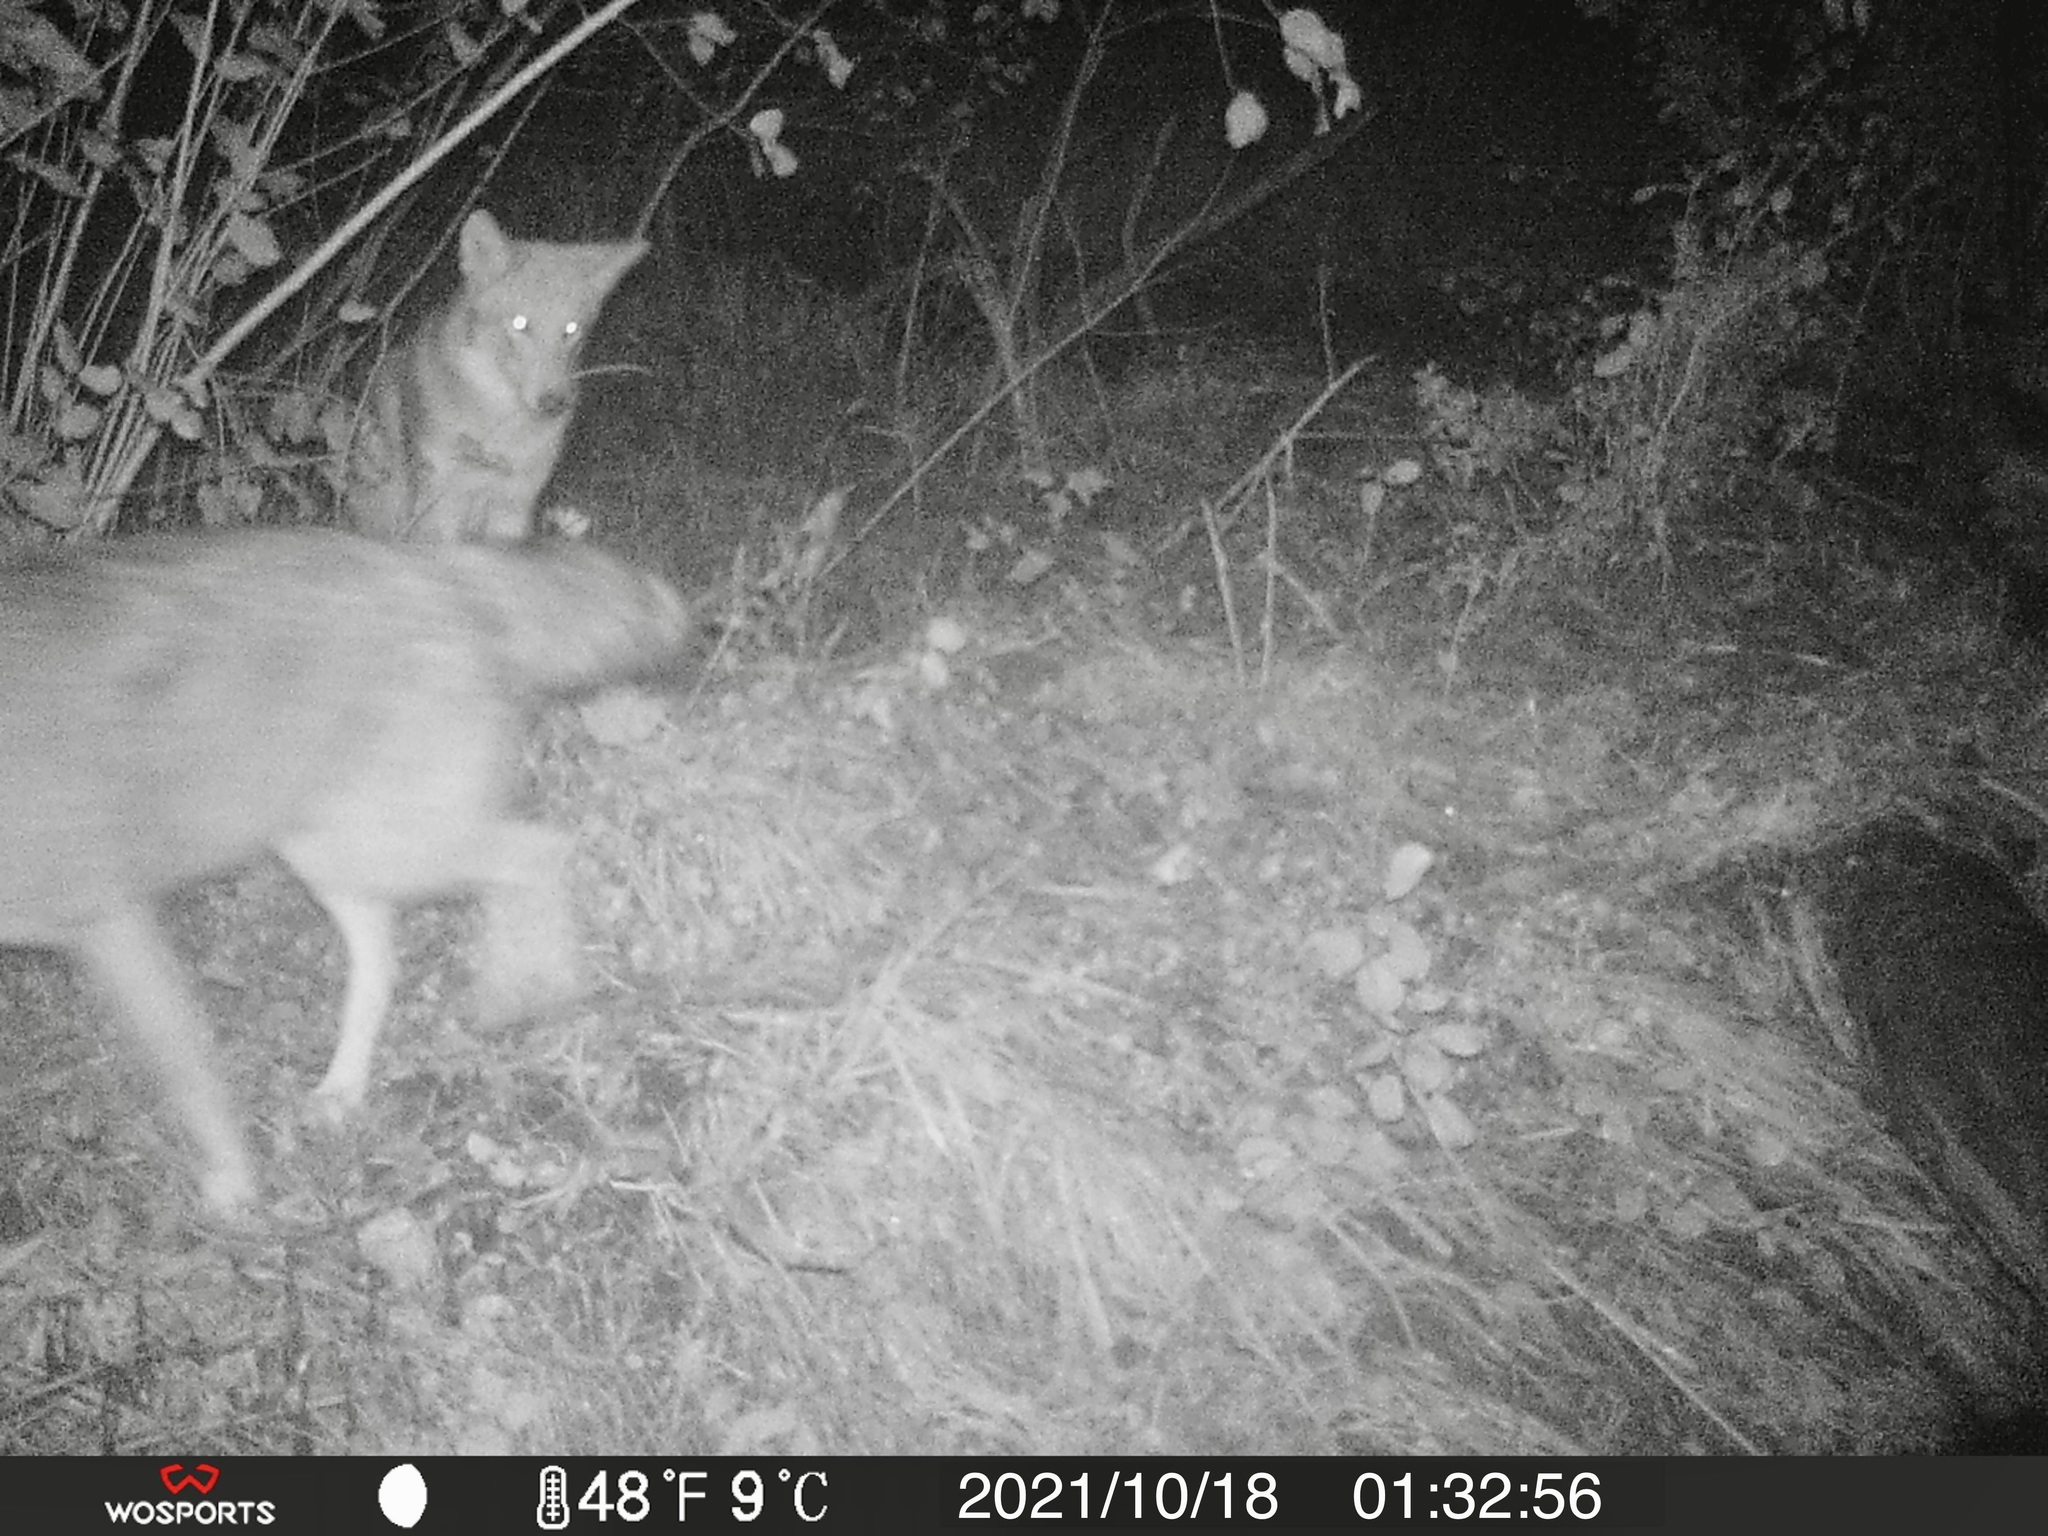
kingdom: Animalia
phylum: Chordata
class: Mammalia
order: Carnivora
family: Canidae
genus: Canis
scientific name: Canis latrans
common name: Coyote
